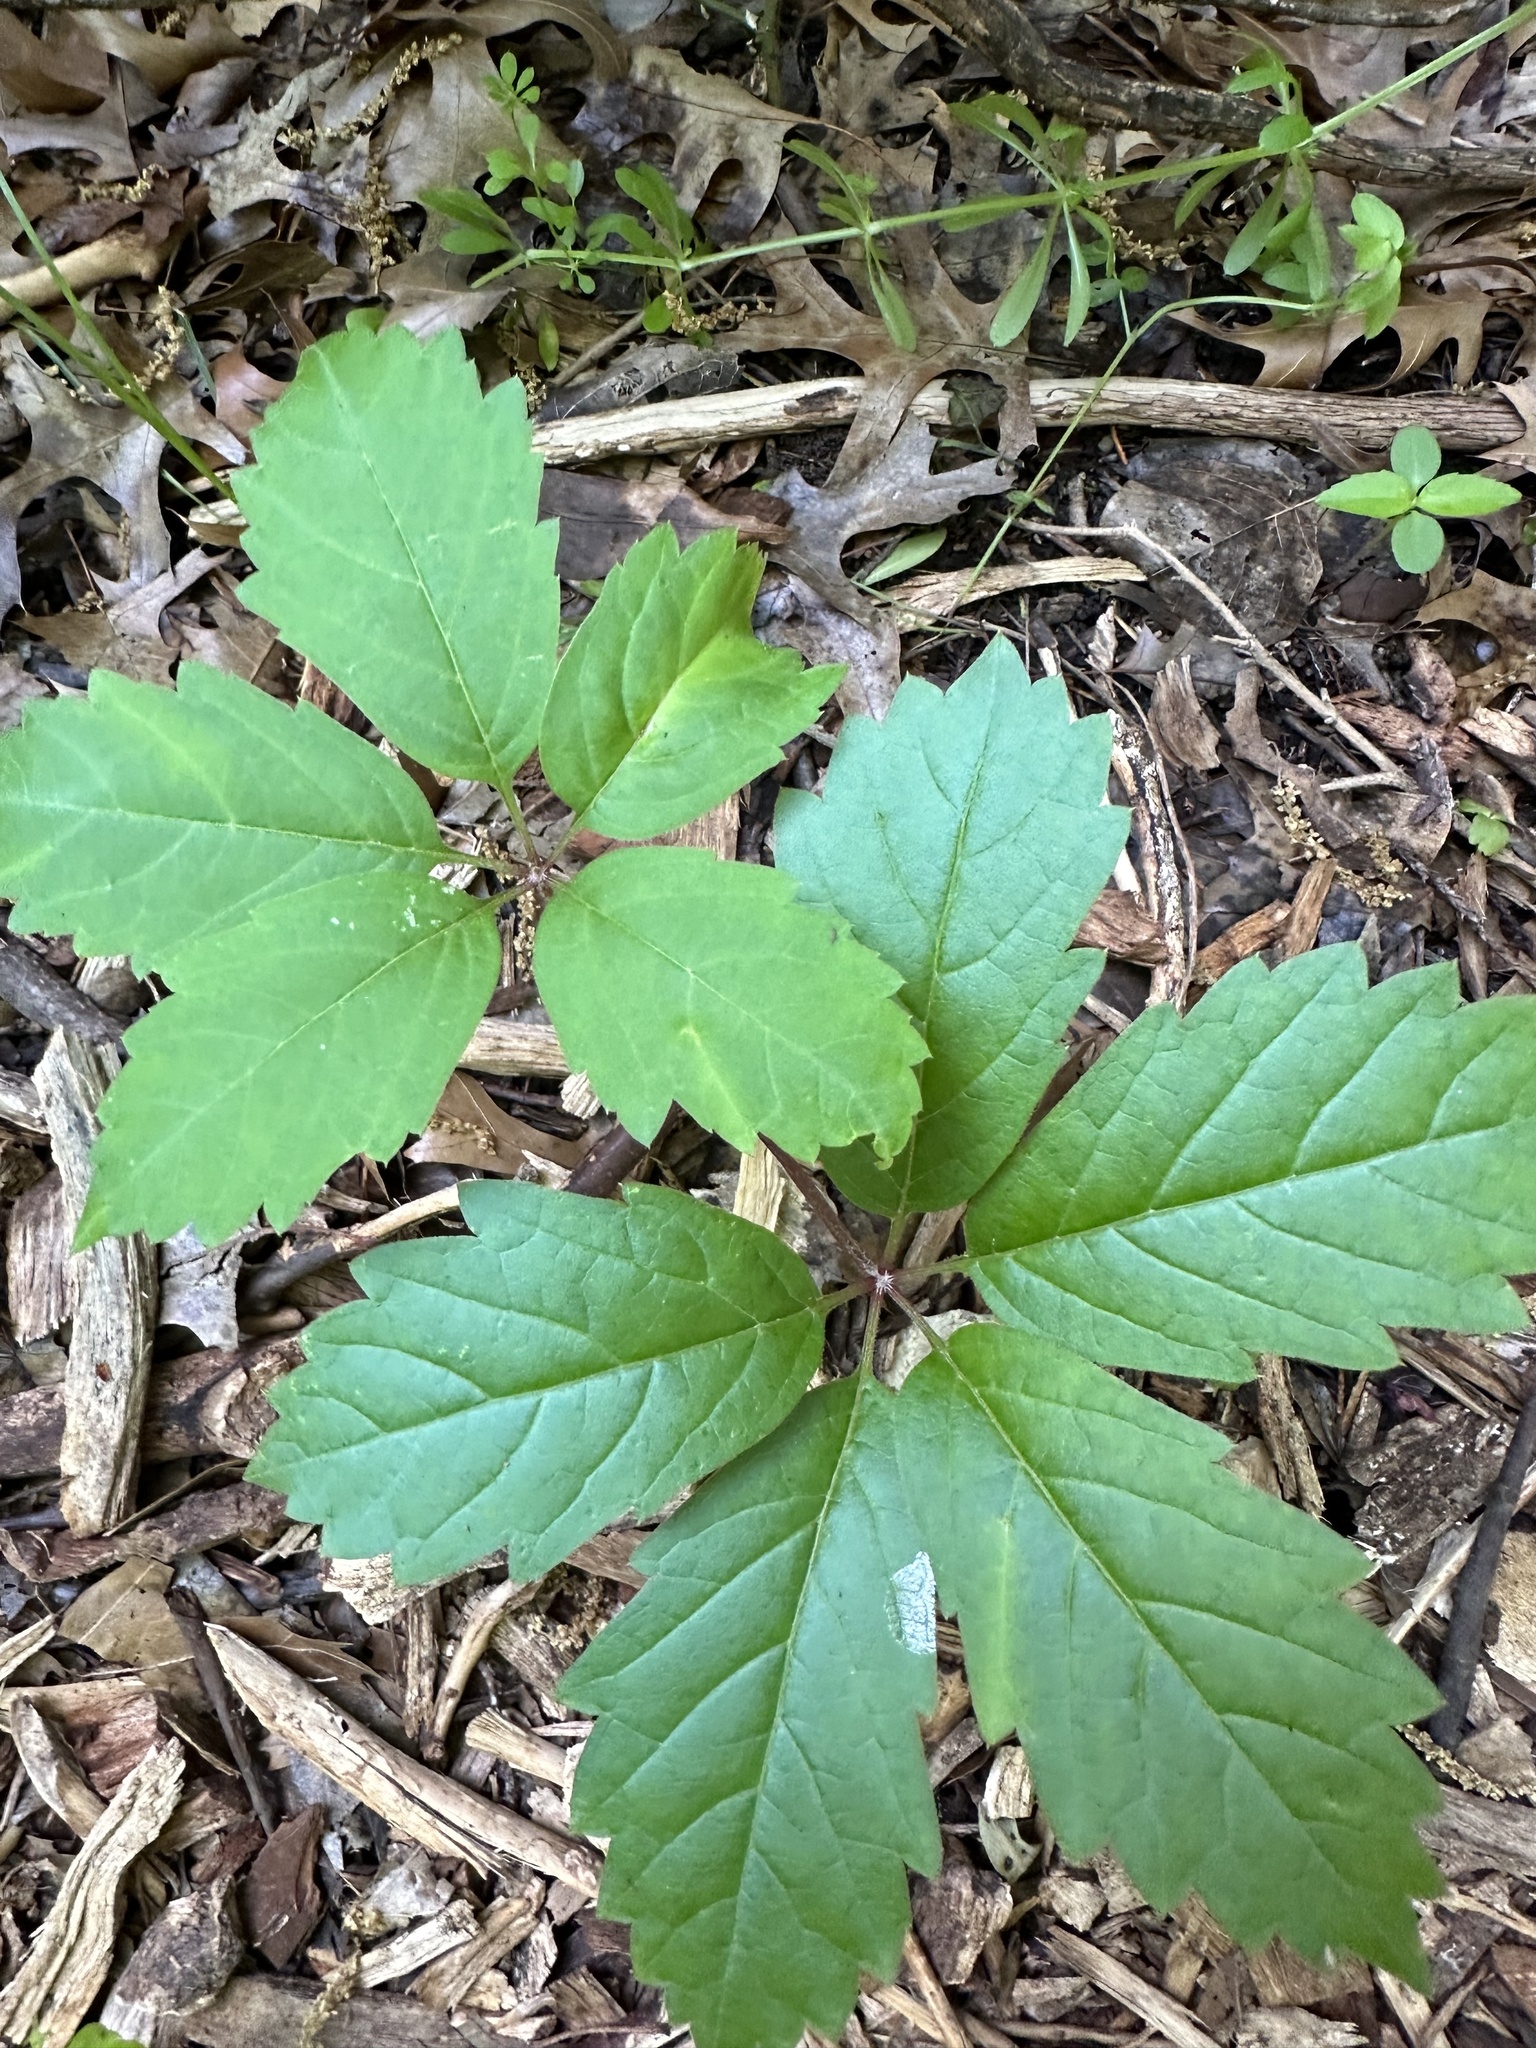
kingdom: Plantae
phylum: Tracheophyta
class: Magnoliopsida
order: Vitales
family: Vitaceae
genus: Parthenocissus
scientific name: Parthenocissus quinquefolia
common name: Virginia-creeper
